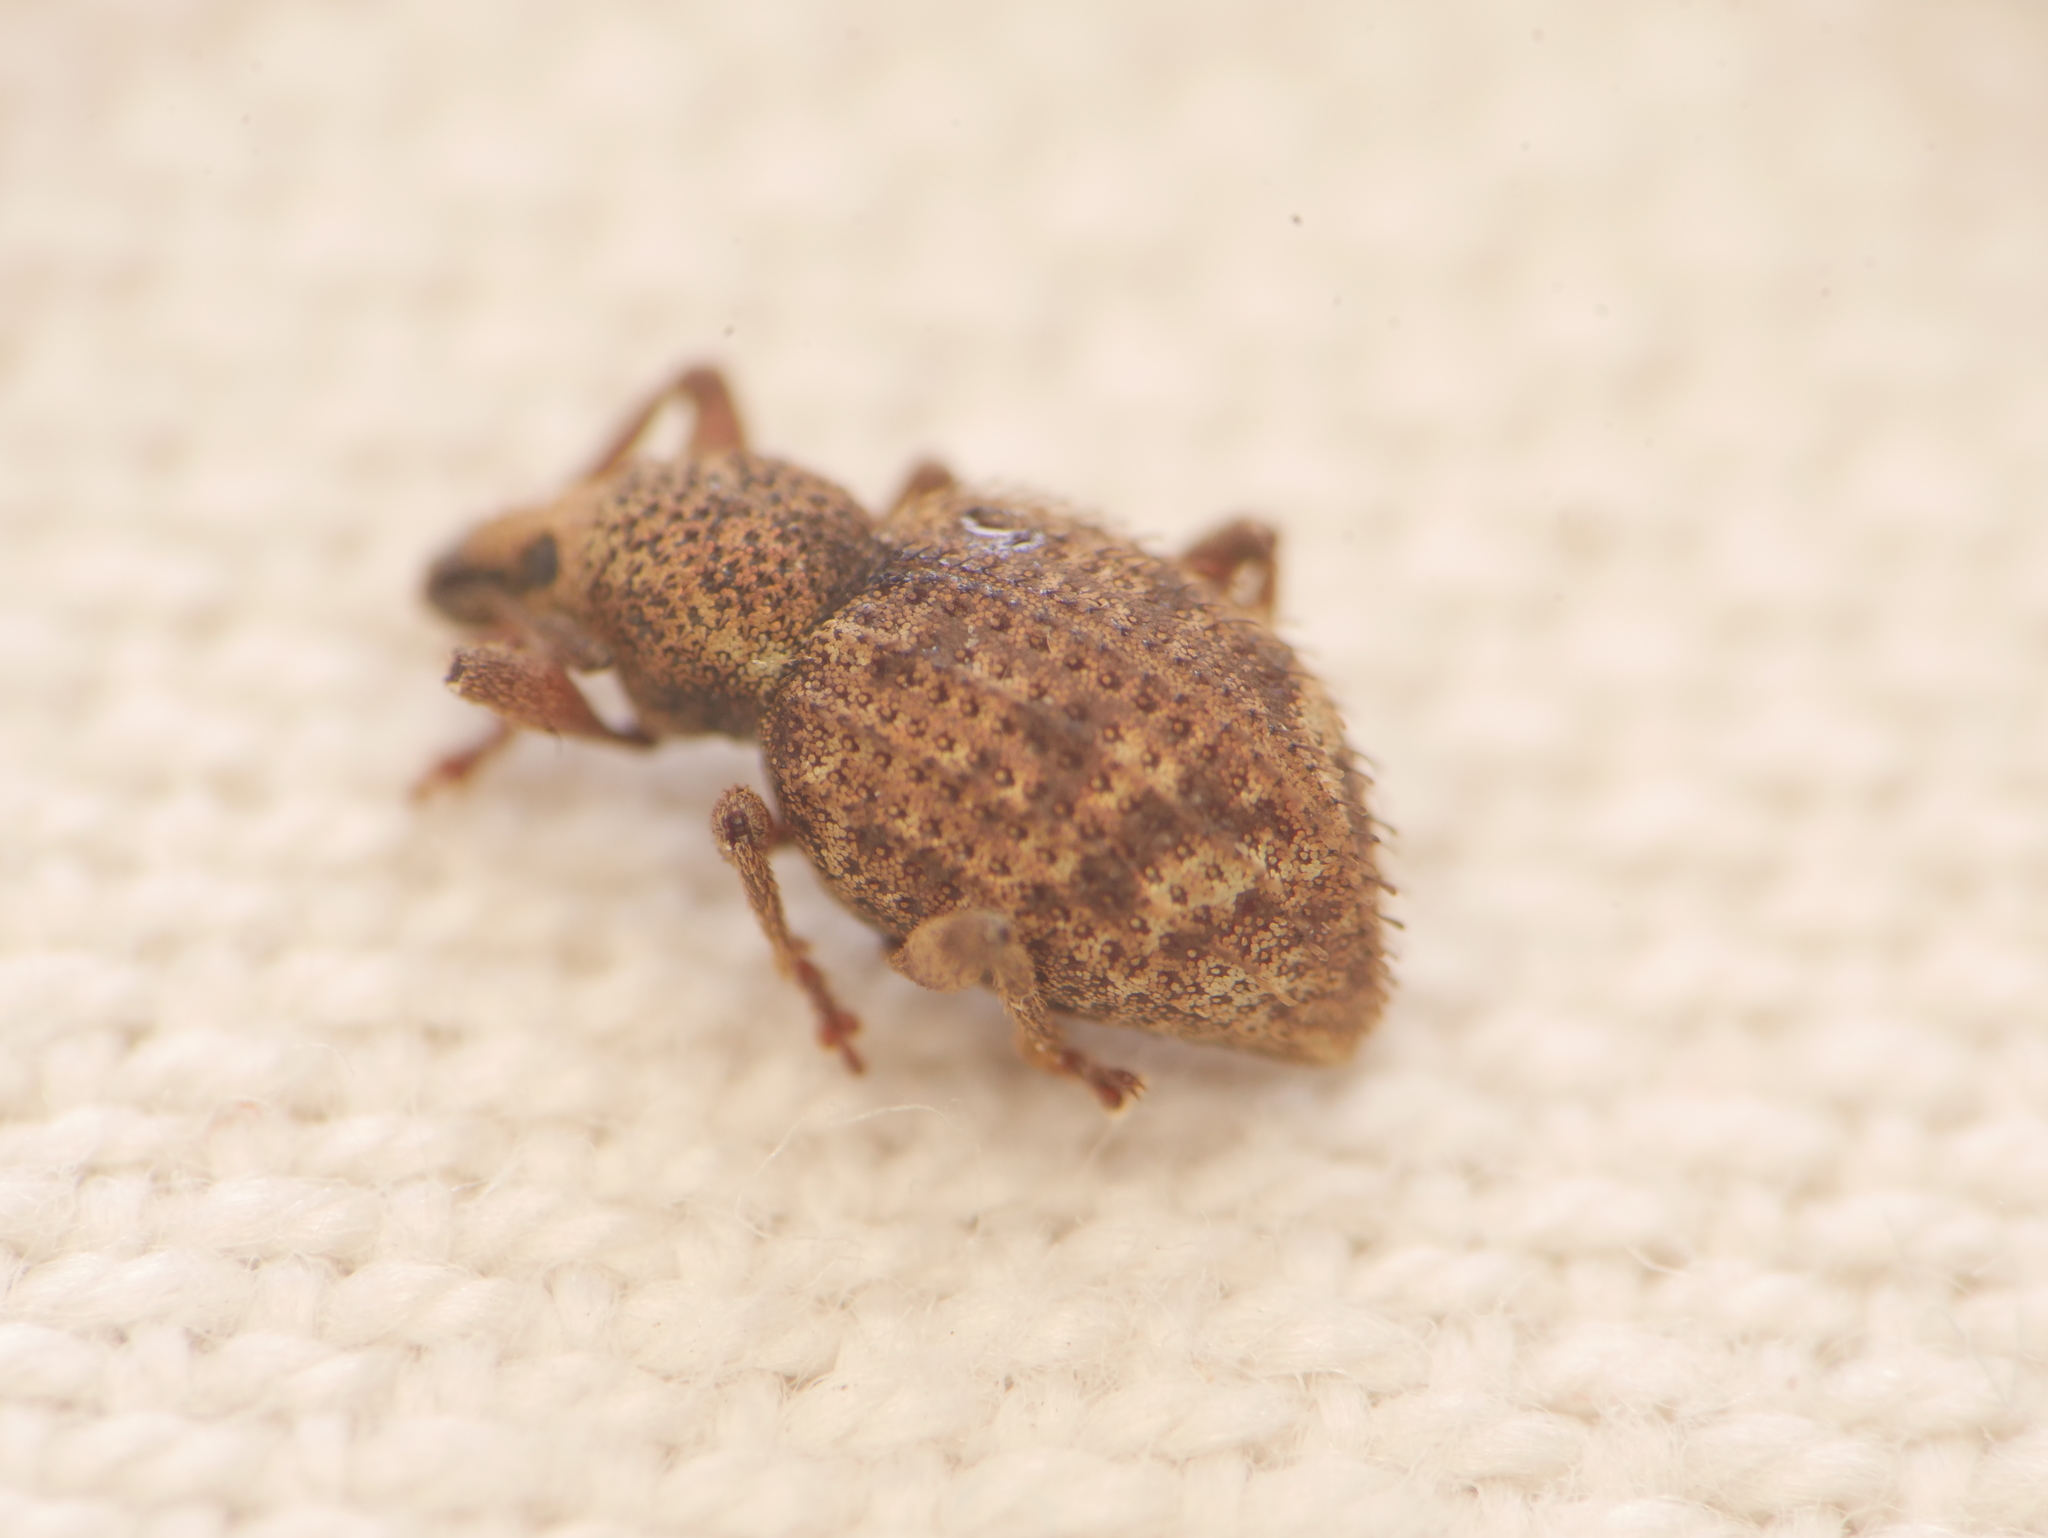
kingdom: Animalia
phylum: Arthropoda
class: Insecta
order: Coleoptera
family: Curculionidae
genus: Otiorhynchus
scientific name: Otiorhynchus carinatopunctatus
